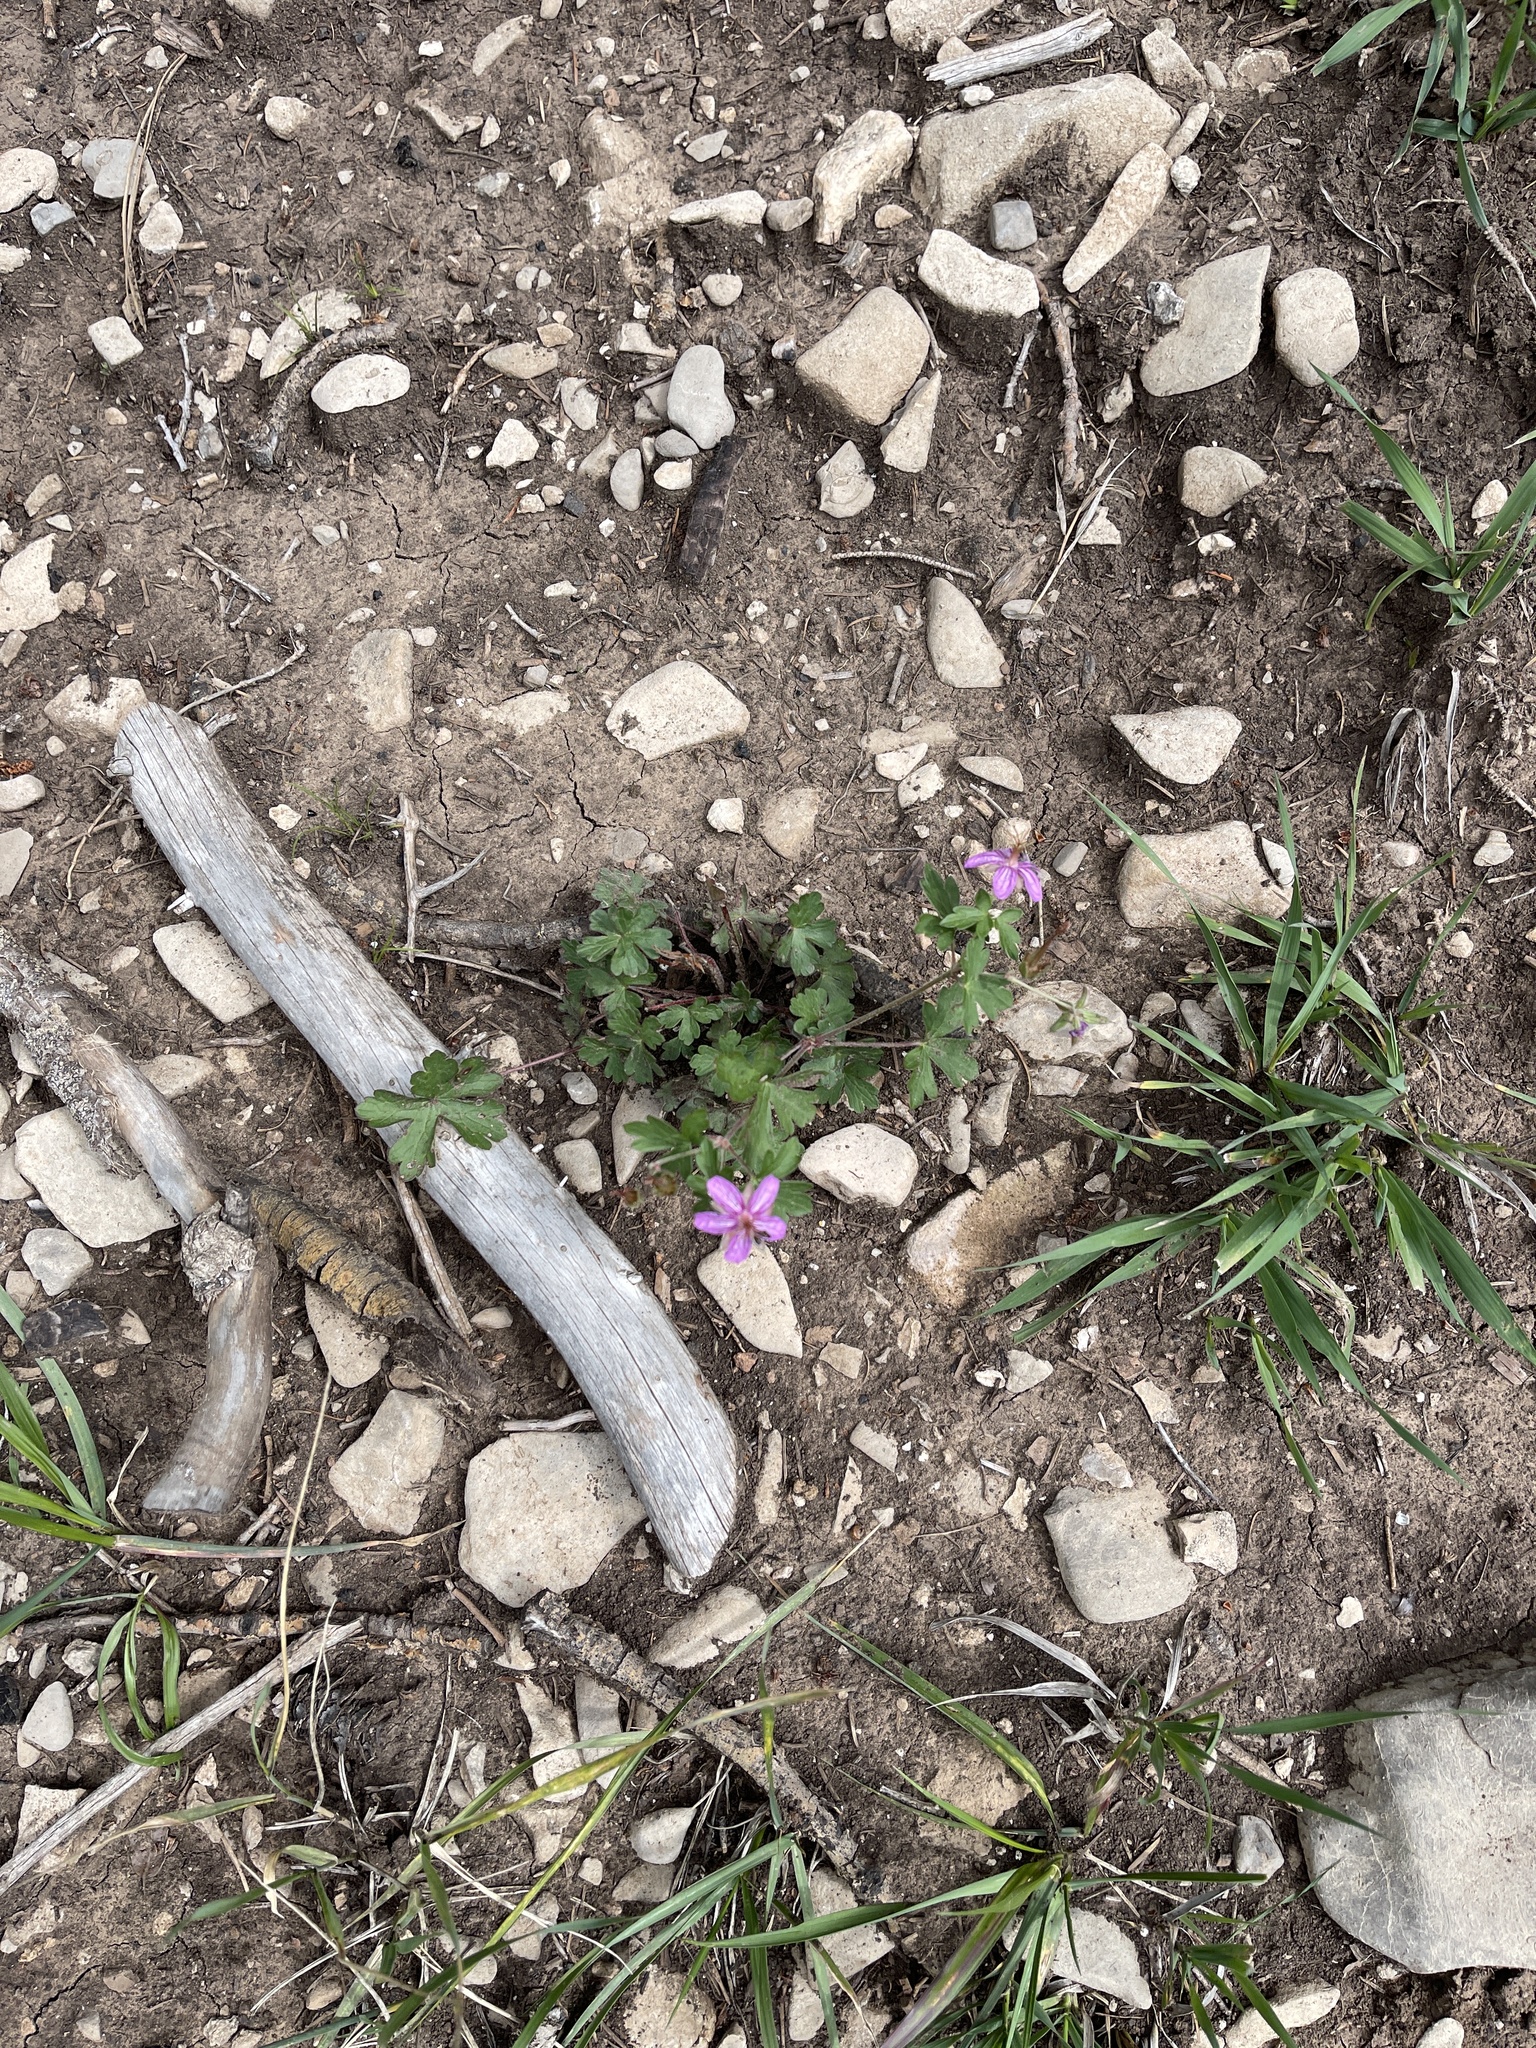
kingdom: Plantae
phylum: Tracheophyta
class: Magnoliopsida
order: Geraniales
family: Geraniaceae
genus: Geranium
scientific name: Geranium caespitosum
